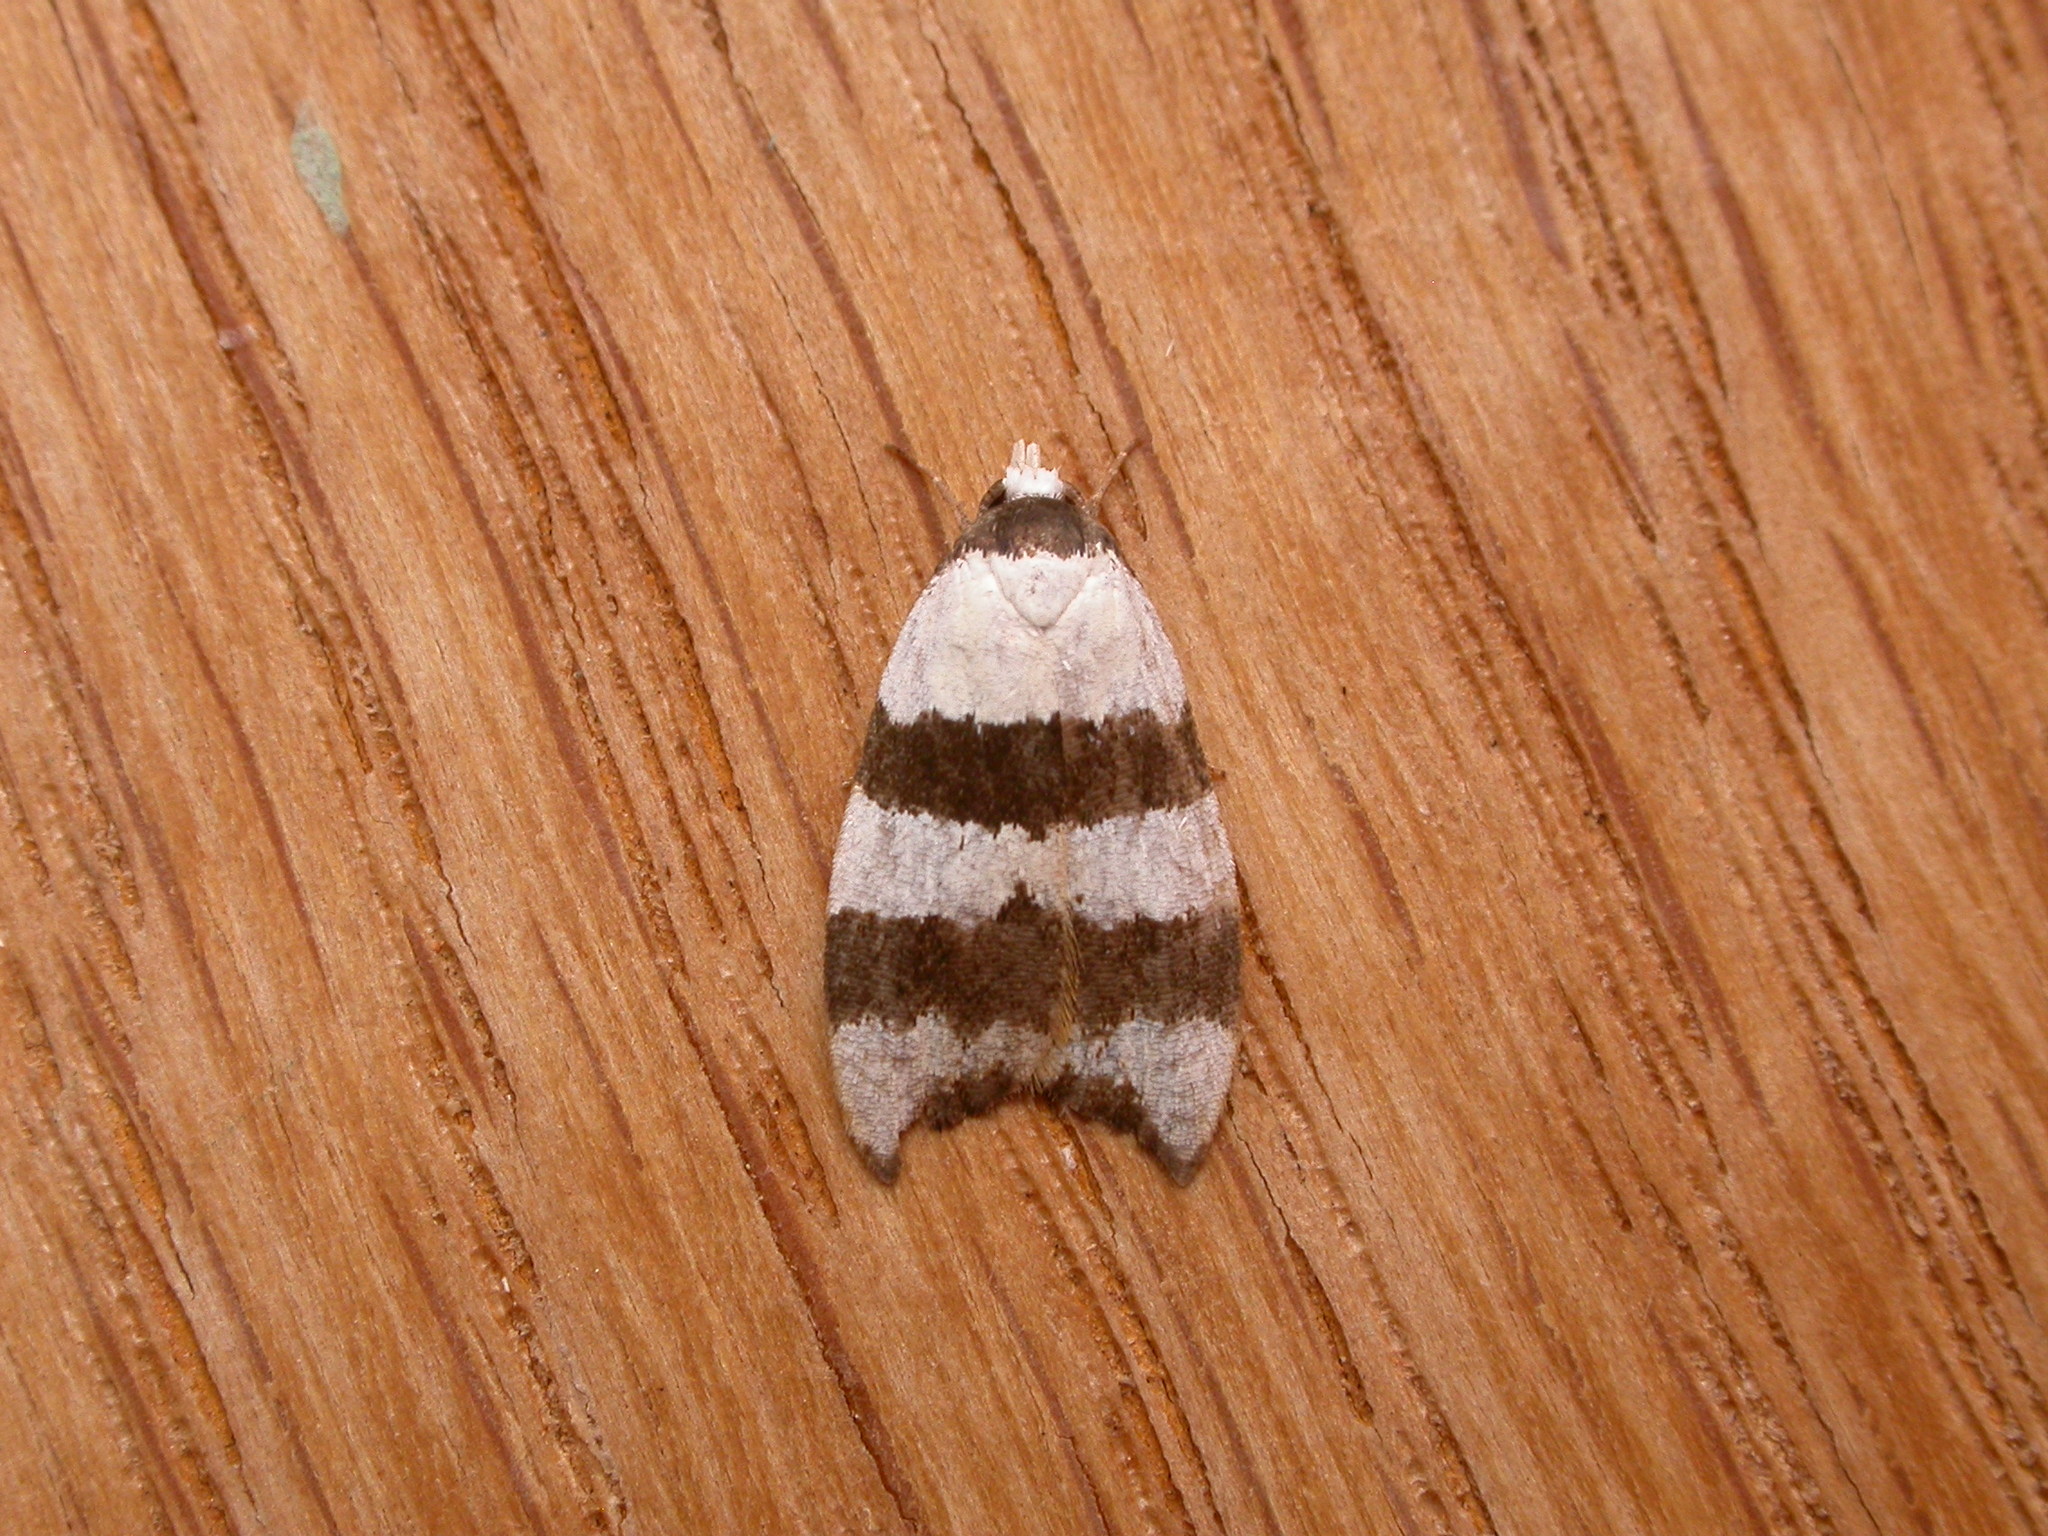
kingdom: Animalia
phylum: Arthropoda
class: Insecta
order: Lepidoptera
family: Oecophoridae
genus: Zonopetala
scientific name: Zonopetala clerota
